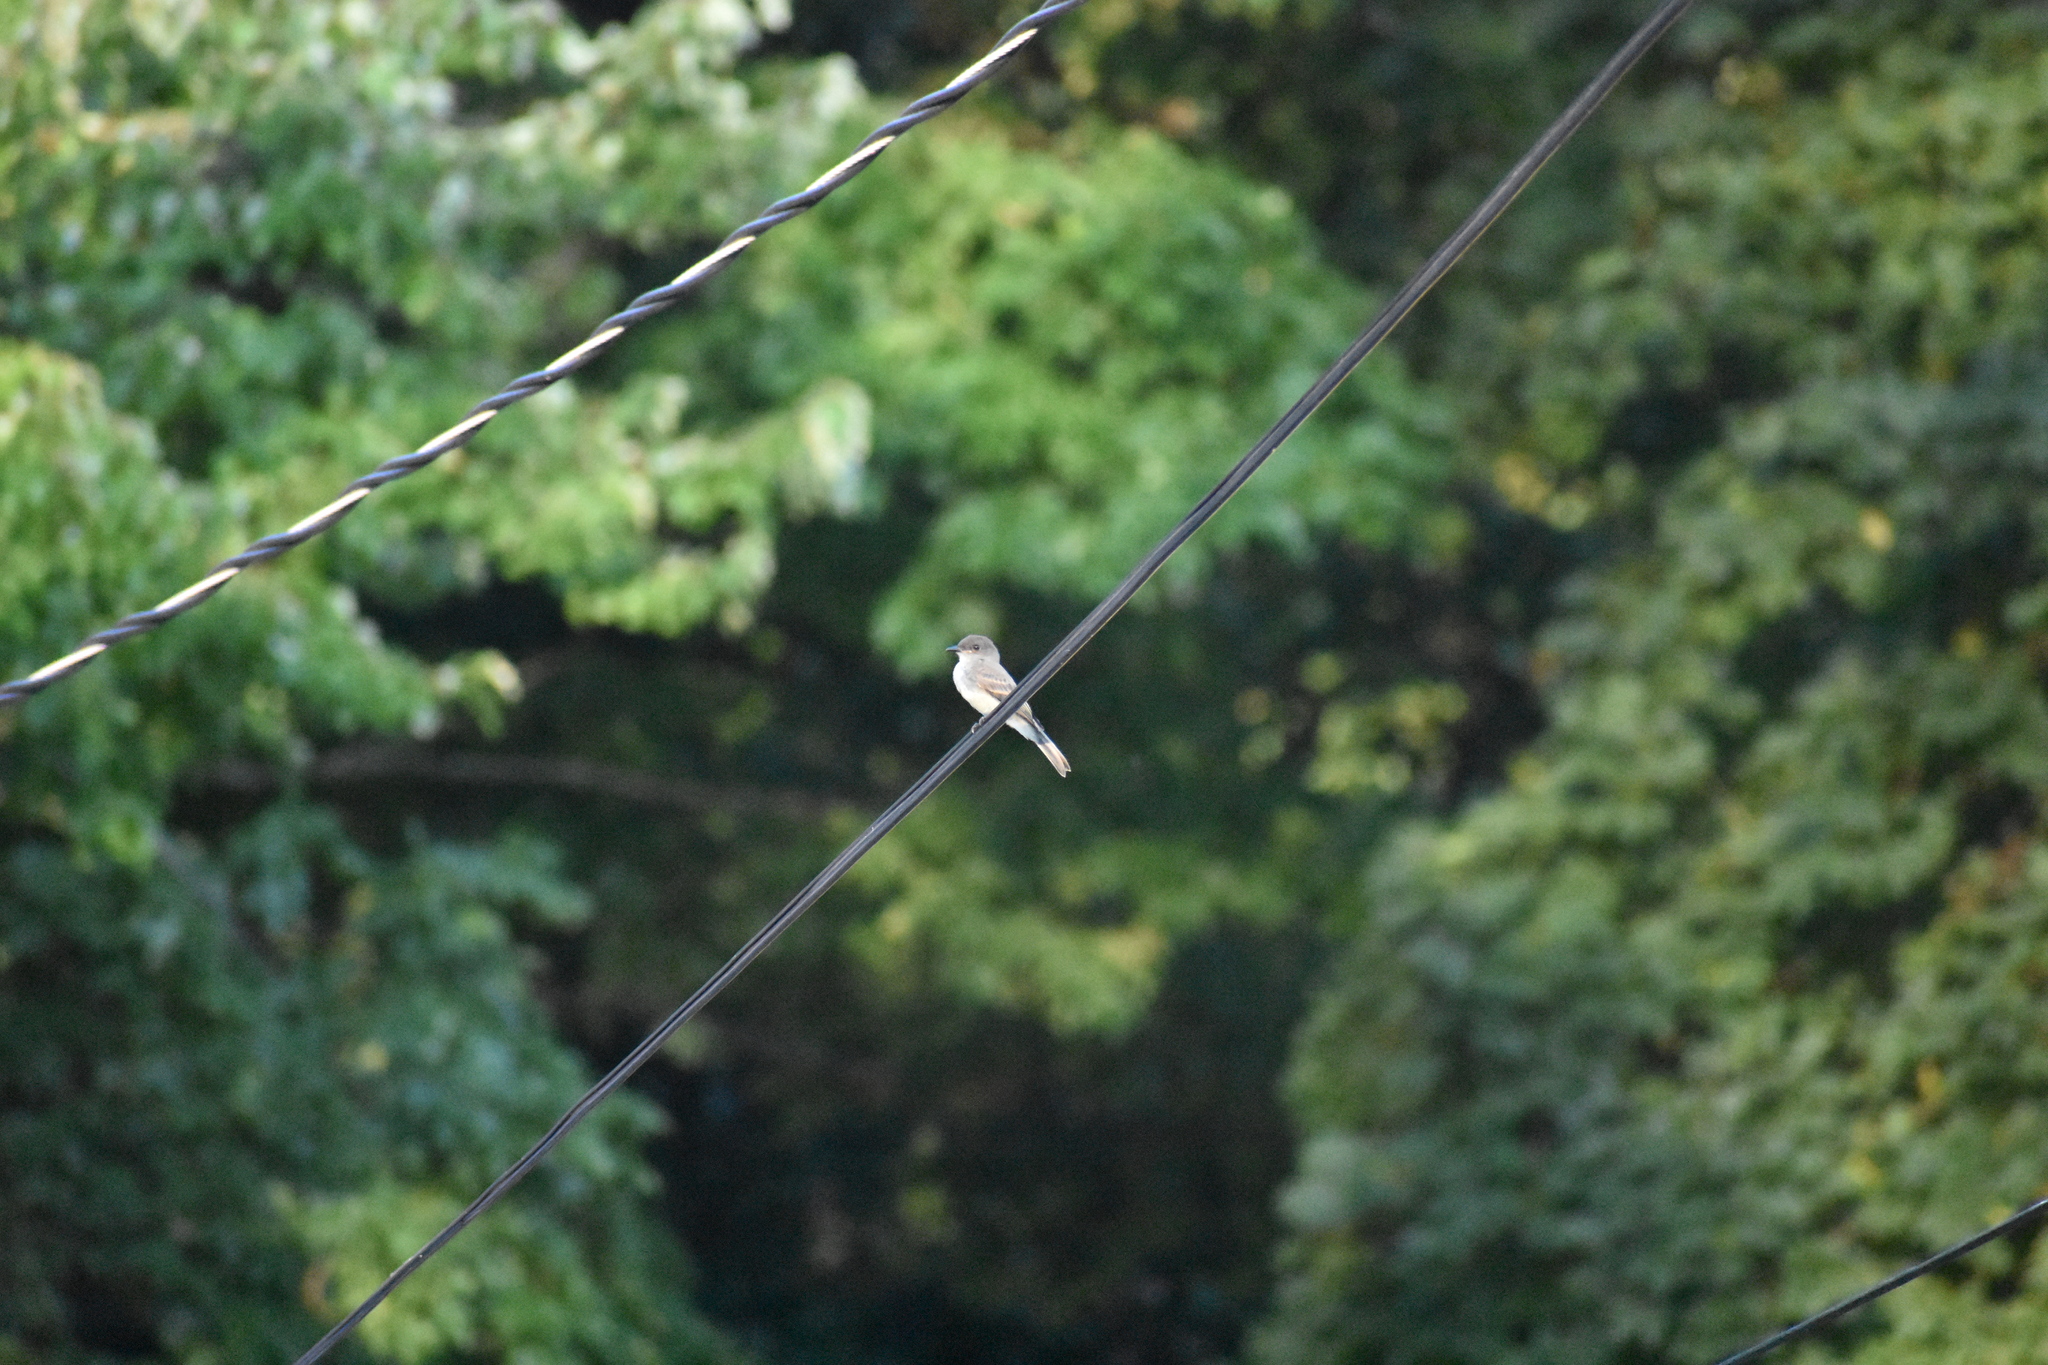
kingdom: Animalia
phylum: Chordata
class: Aves
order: Passeriformes
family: Tyrannidae
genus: Sayornis
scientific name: Sayornis phoebe
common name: Eastern phoebe
